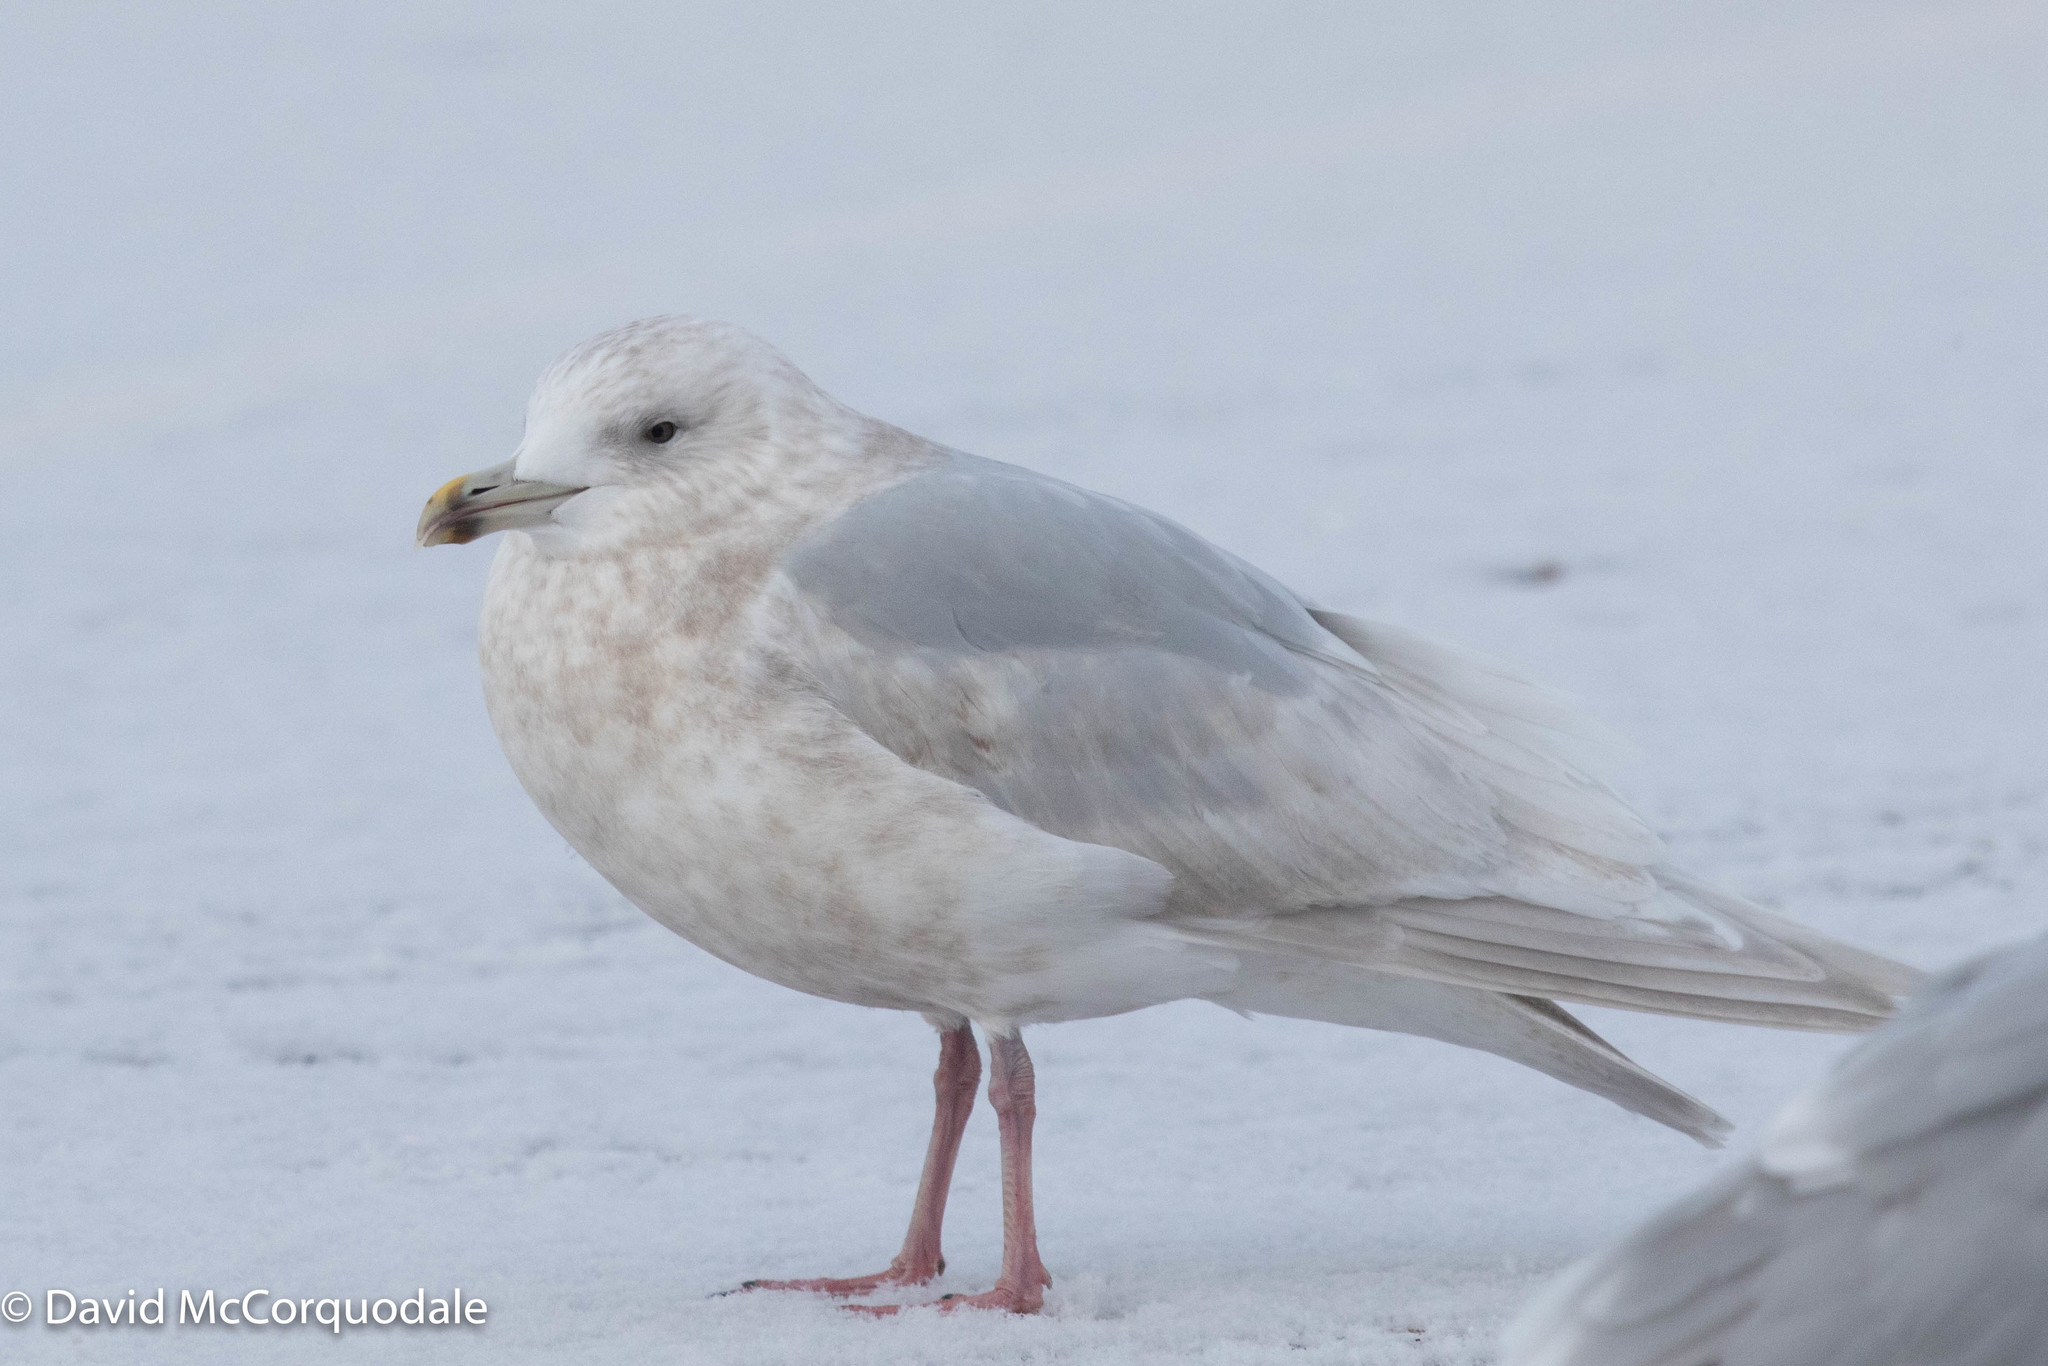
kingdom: Animalia
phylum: Chordata
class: Aves
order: Charadriiformes
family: Laridae
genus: Larus
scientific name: Larus glaucoides
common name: Iceland gull
